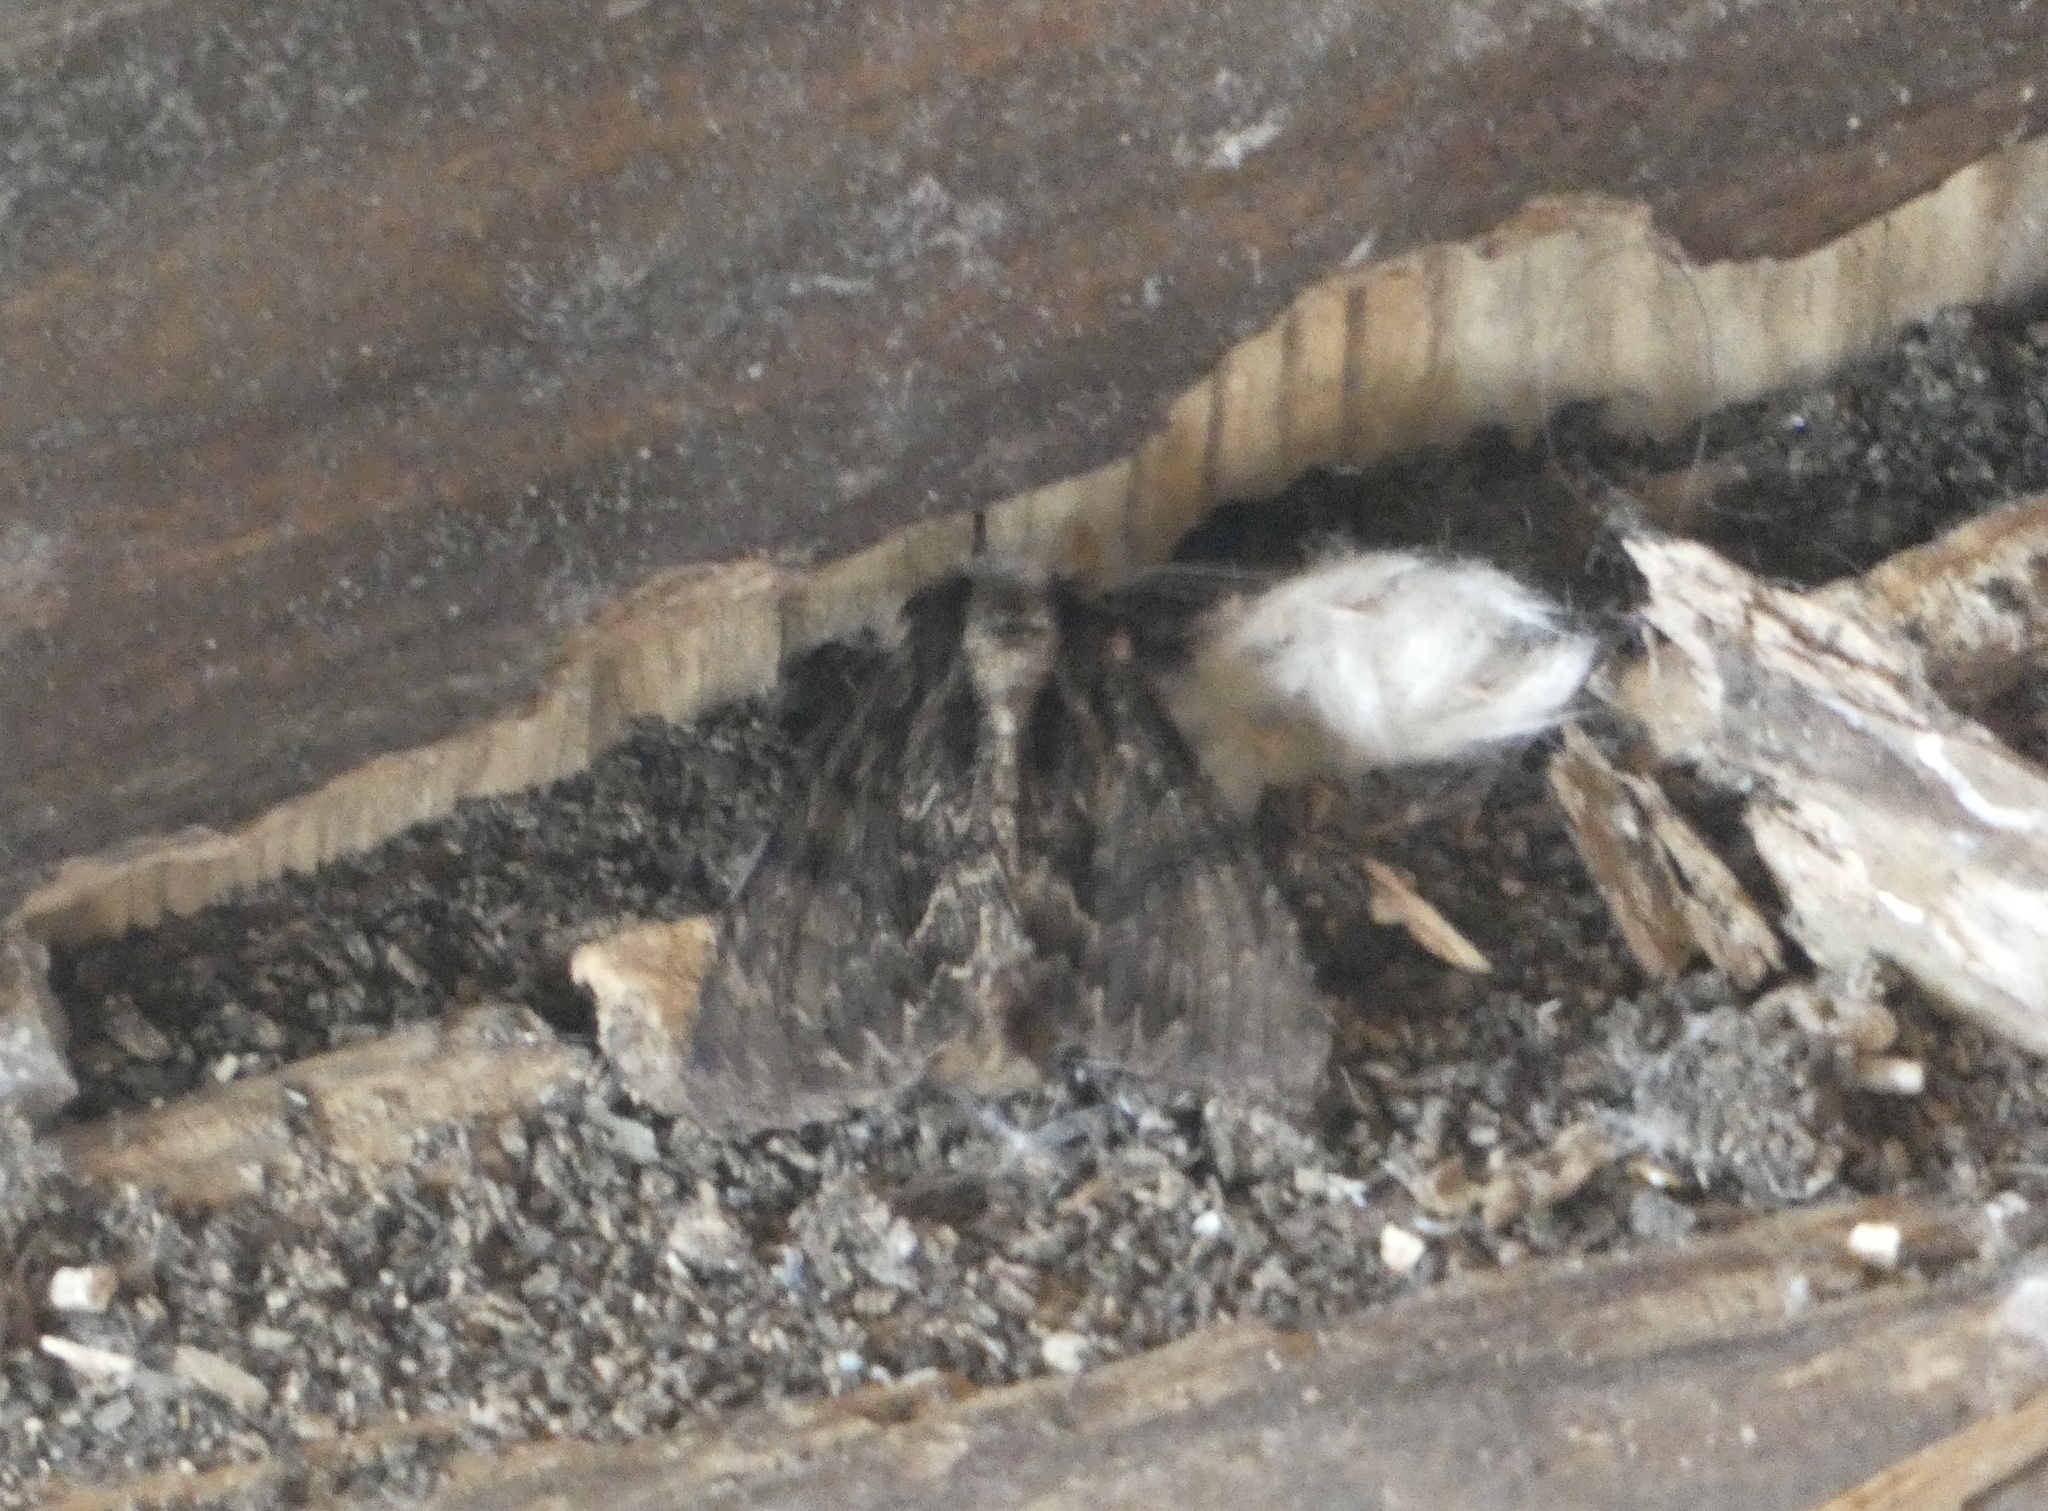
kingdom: Animalia
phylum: Arthropoda
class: Insecta
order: Lepidoptera
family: Noctuidae
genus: Apamea
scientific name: Apamea monoglypha
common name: Dark arches
